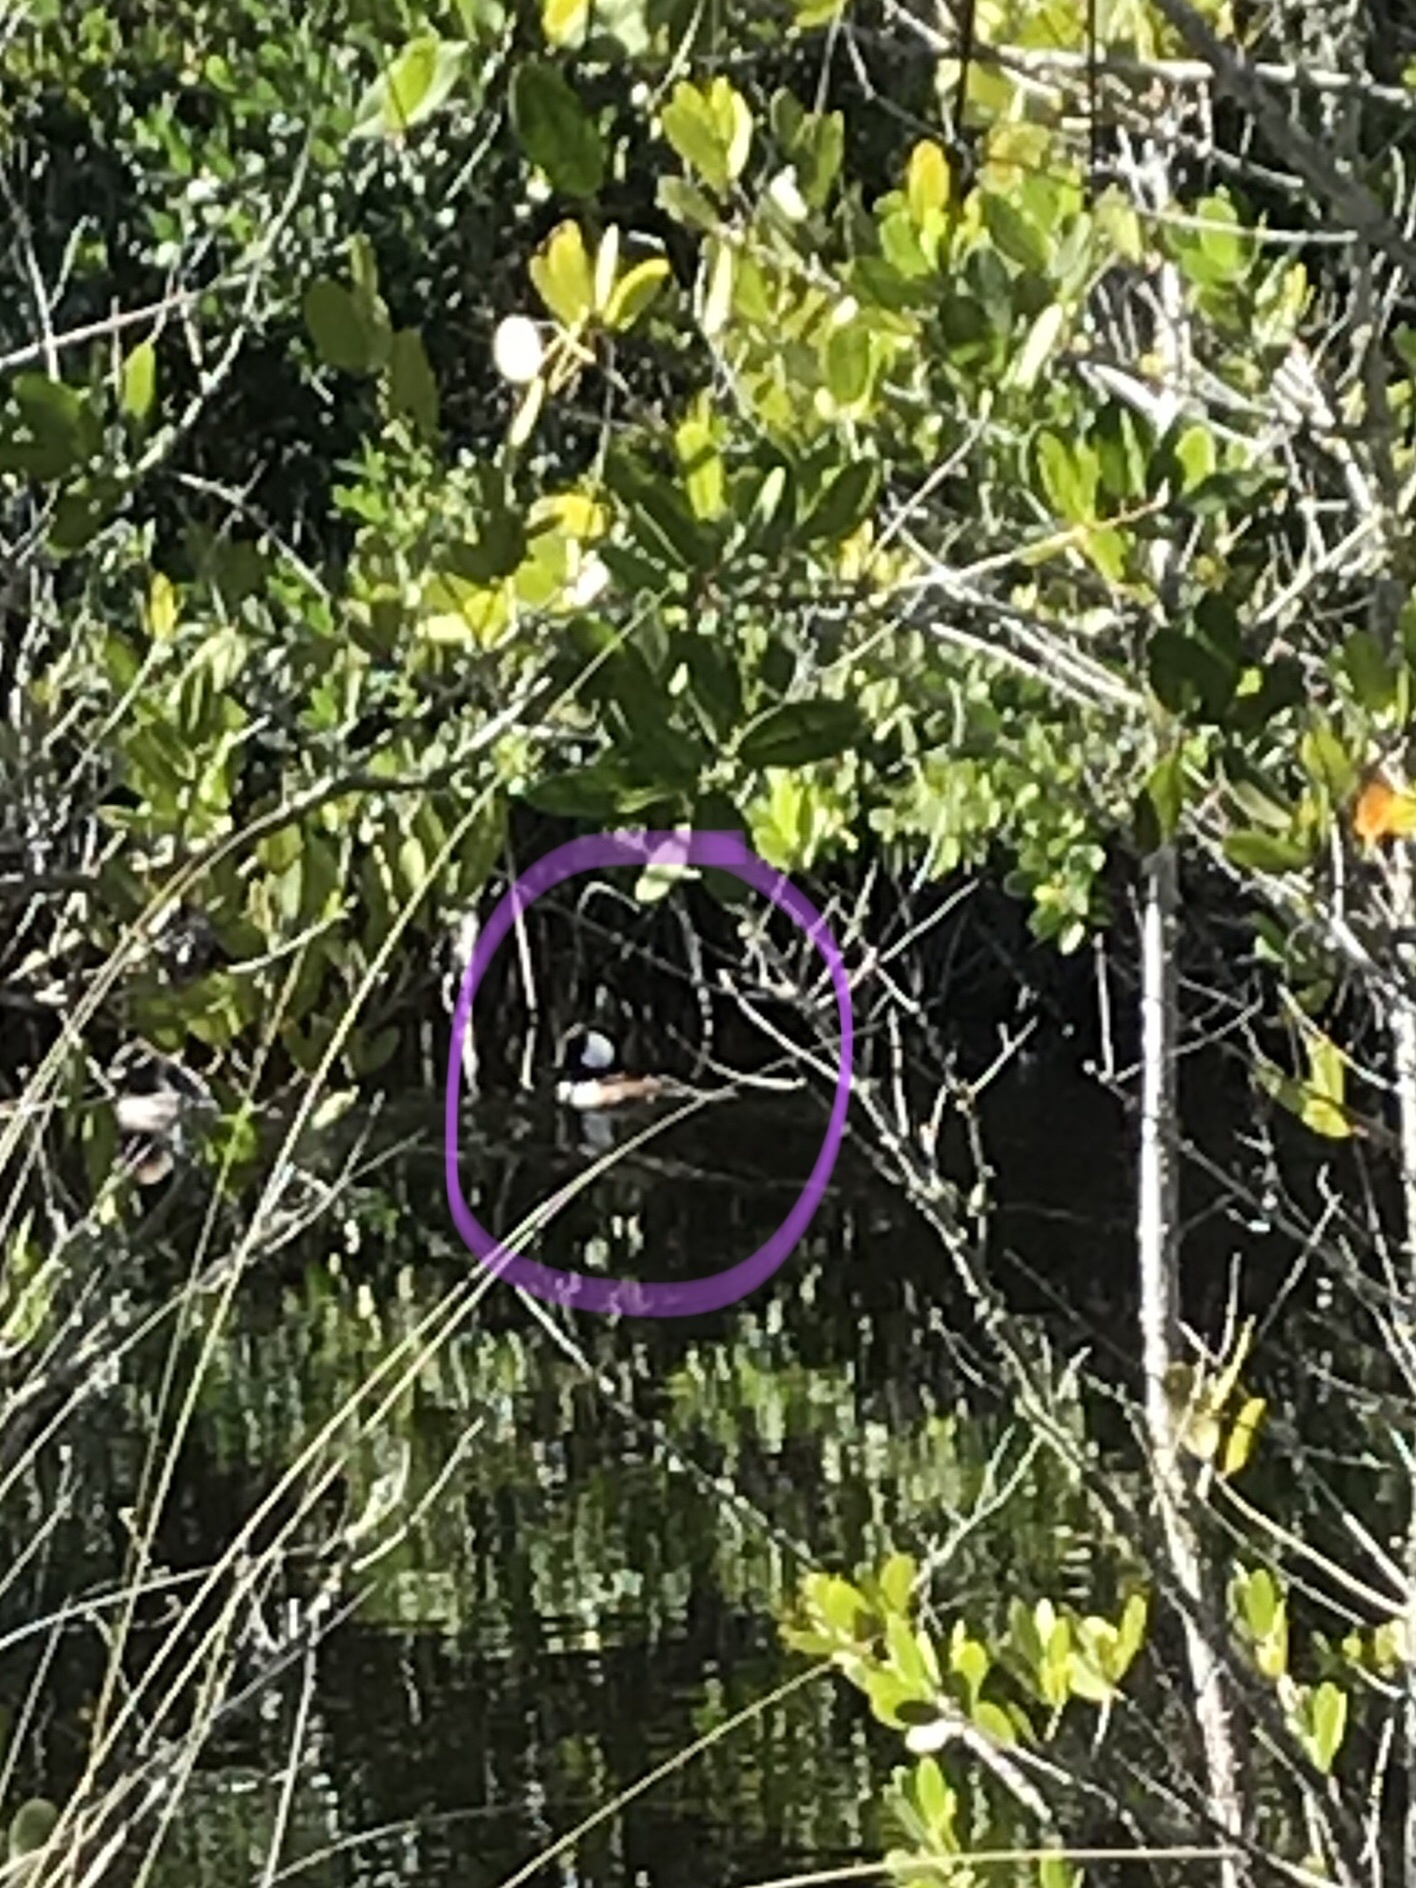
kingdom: Animalia
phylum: Chordata
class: Aves
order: Anseriformes
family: Anatidae
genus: Lophodytes
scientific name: Lophodytes cucullatus
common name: Hooded merganser
